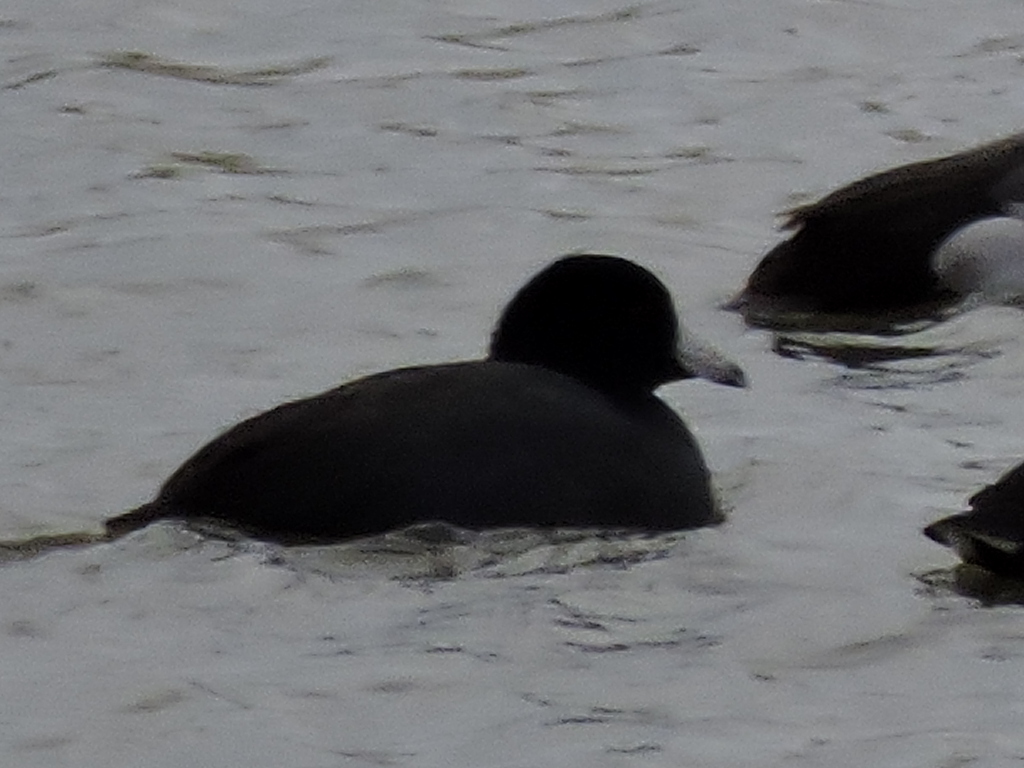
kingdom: Animalia
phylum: Chordata
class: Aves
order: Gruiformes
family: Rallidae
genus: Fulica
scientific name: Fulica americana
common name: American coot
